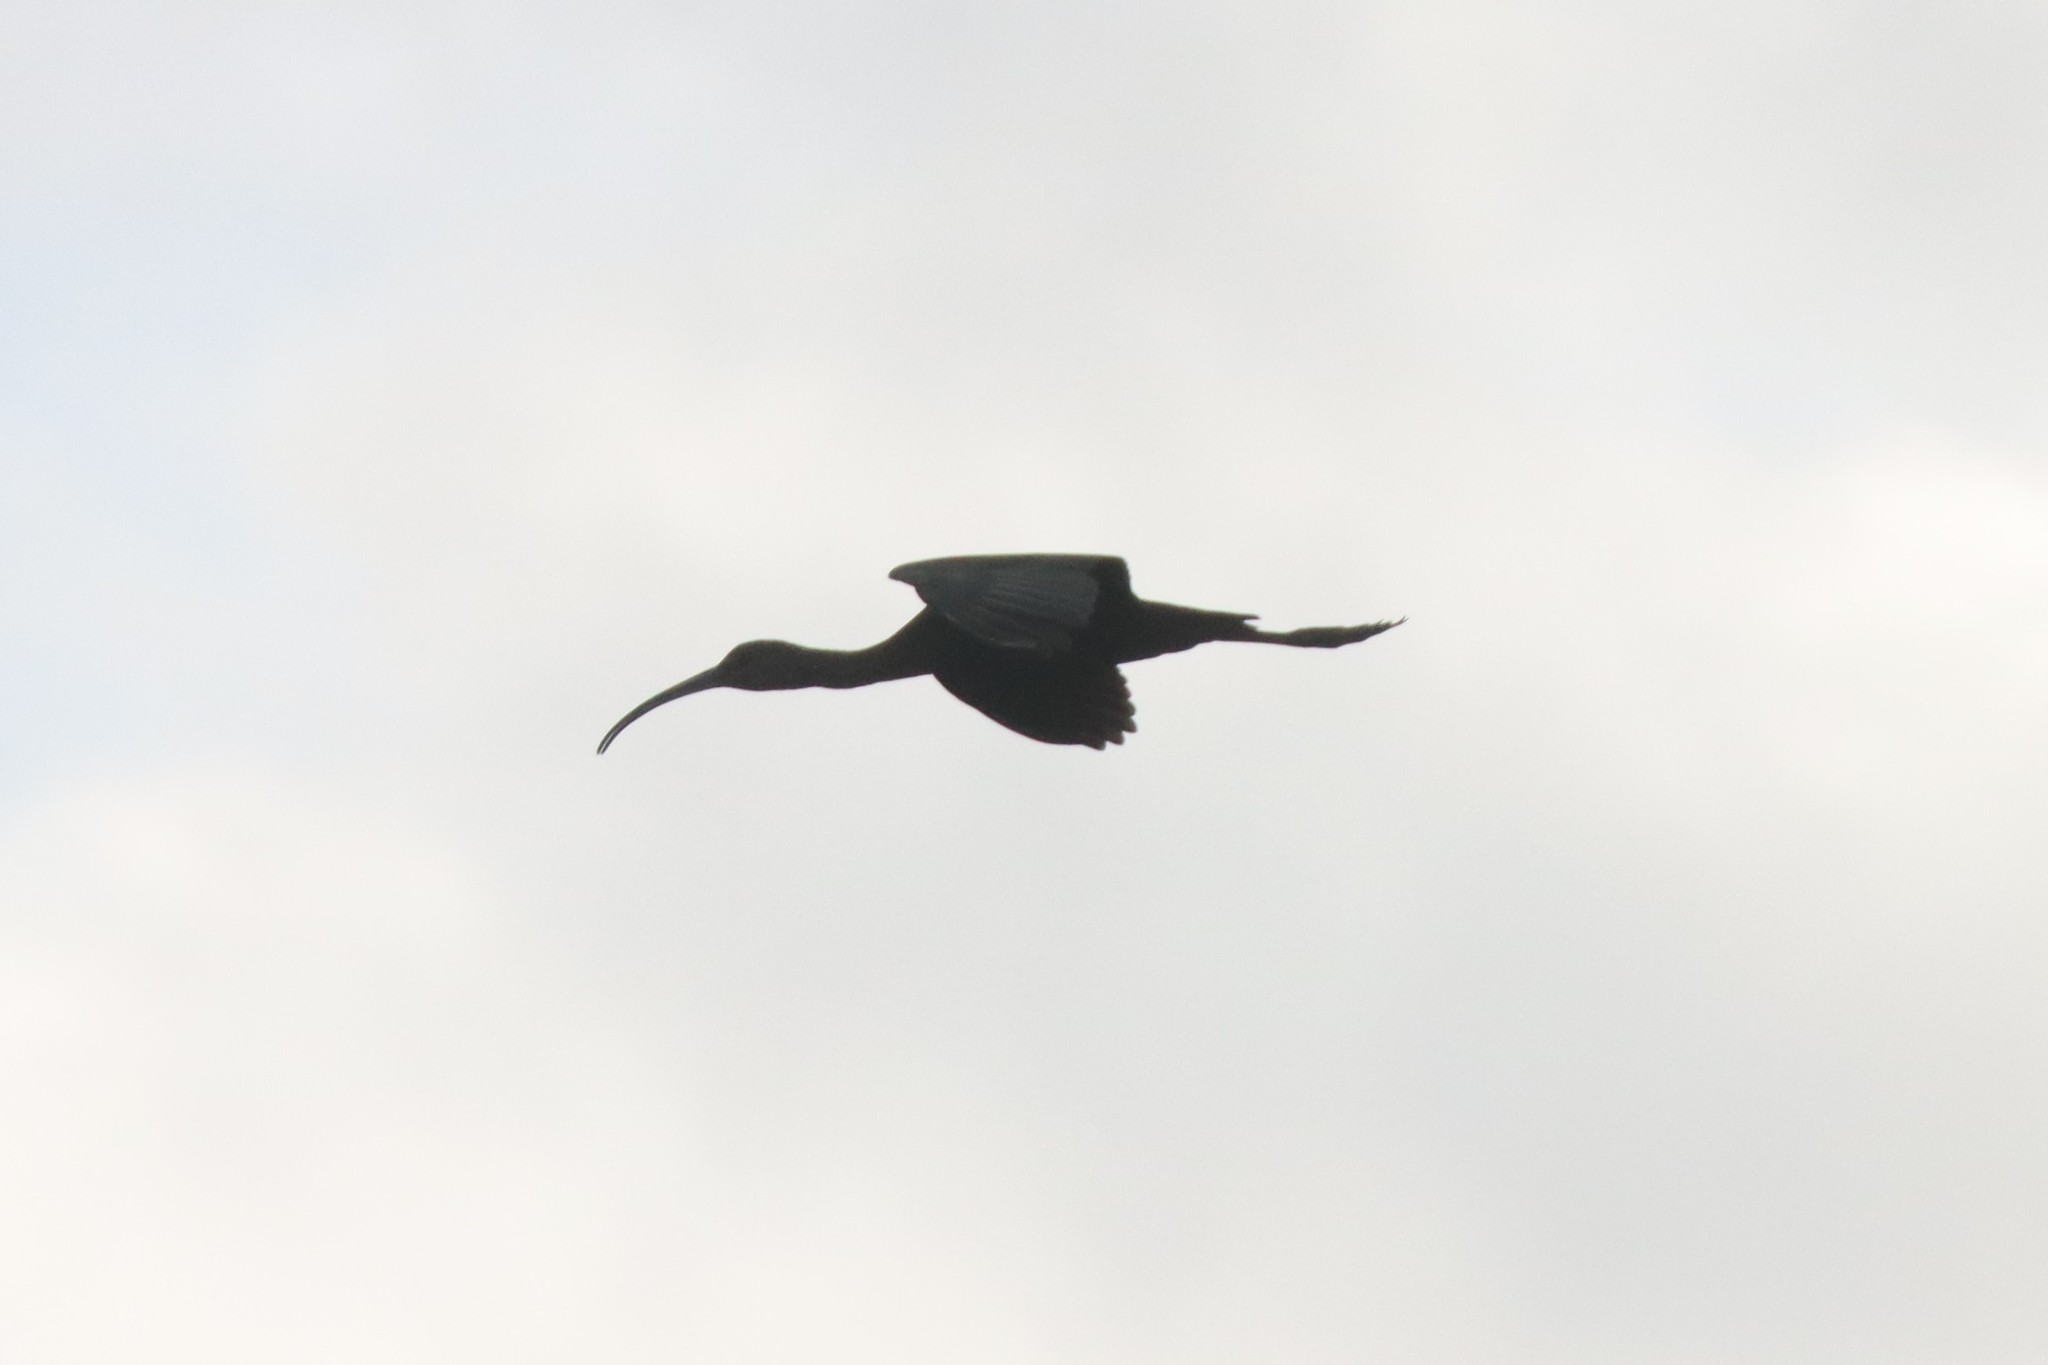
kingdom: Animalia
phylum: Chordata
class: Aves
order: Pelecaniformes
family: Threskiornithidae
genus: Plegadis
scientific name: Plegadis
